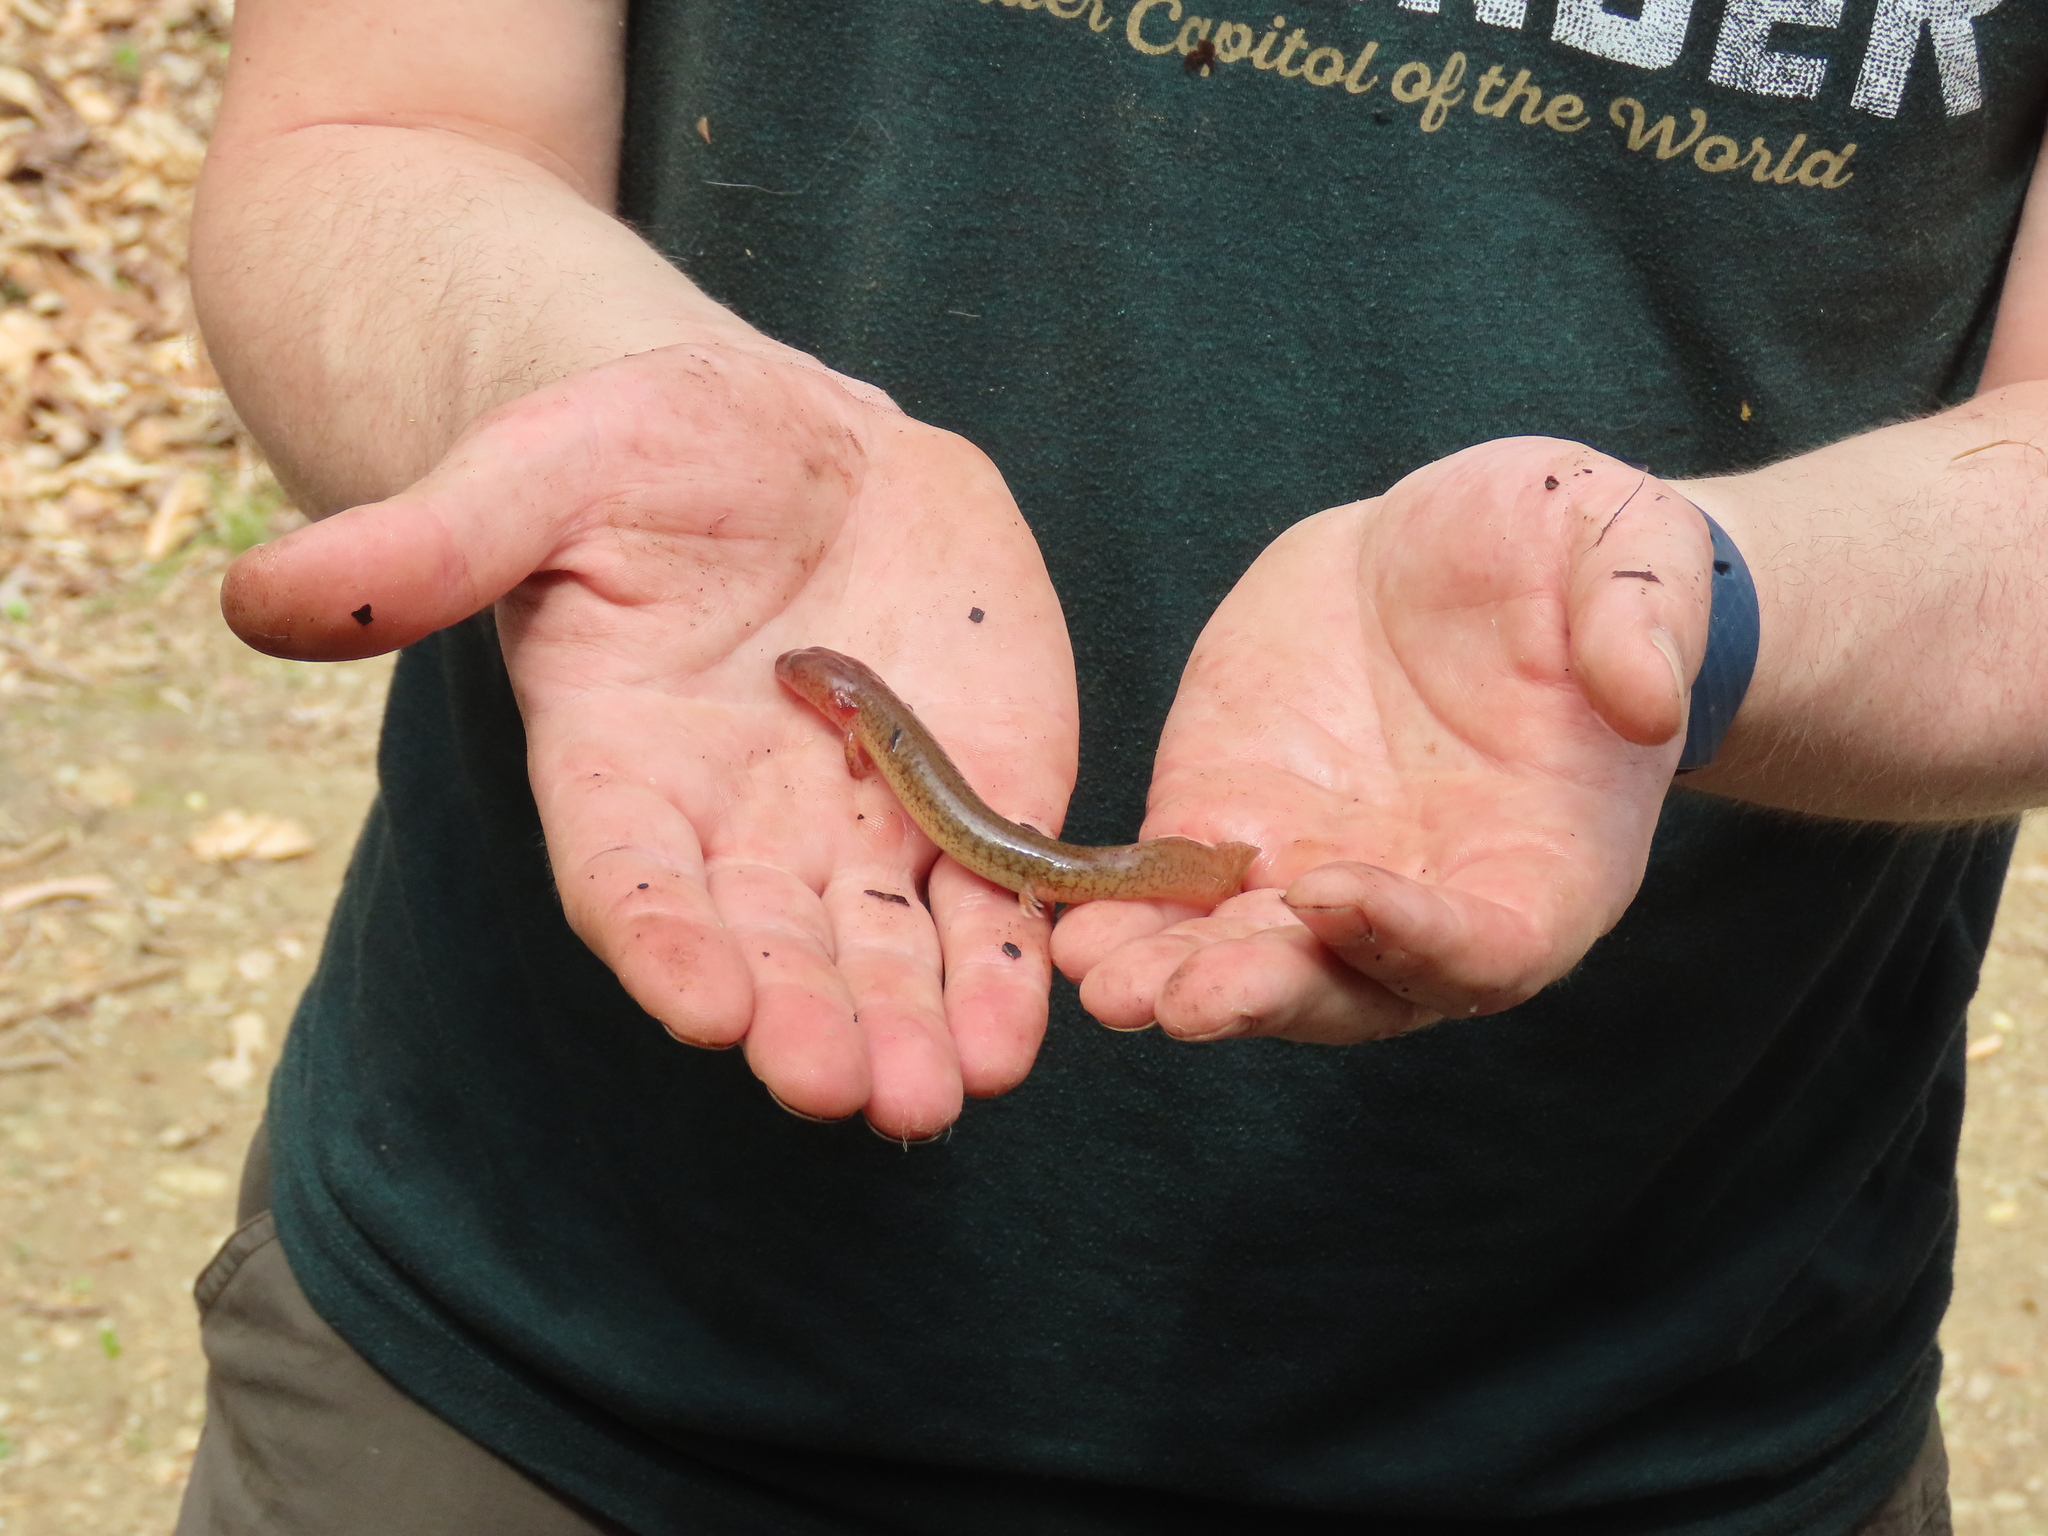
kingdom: Animalia
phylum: Chordata
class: Amphibia
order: Caudata
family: Plethodontidae
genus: Gyrinophilus
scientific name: Gyrinophilus porphyriticus
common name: Spring salamander
